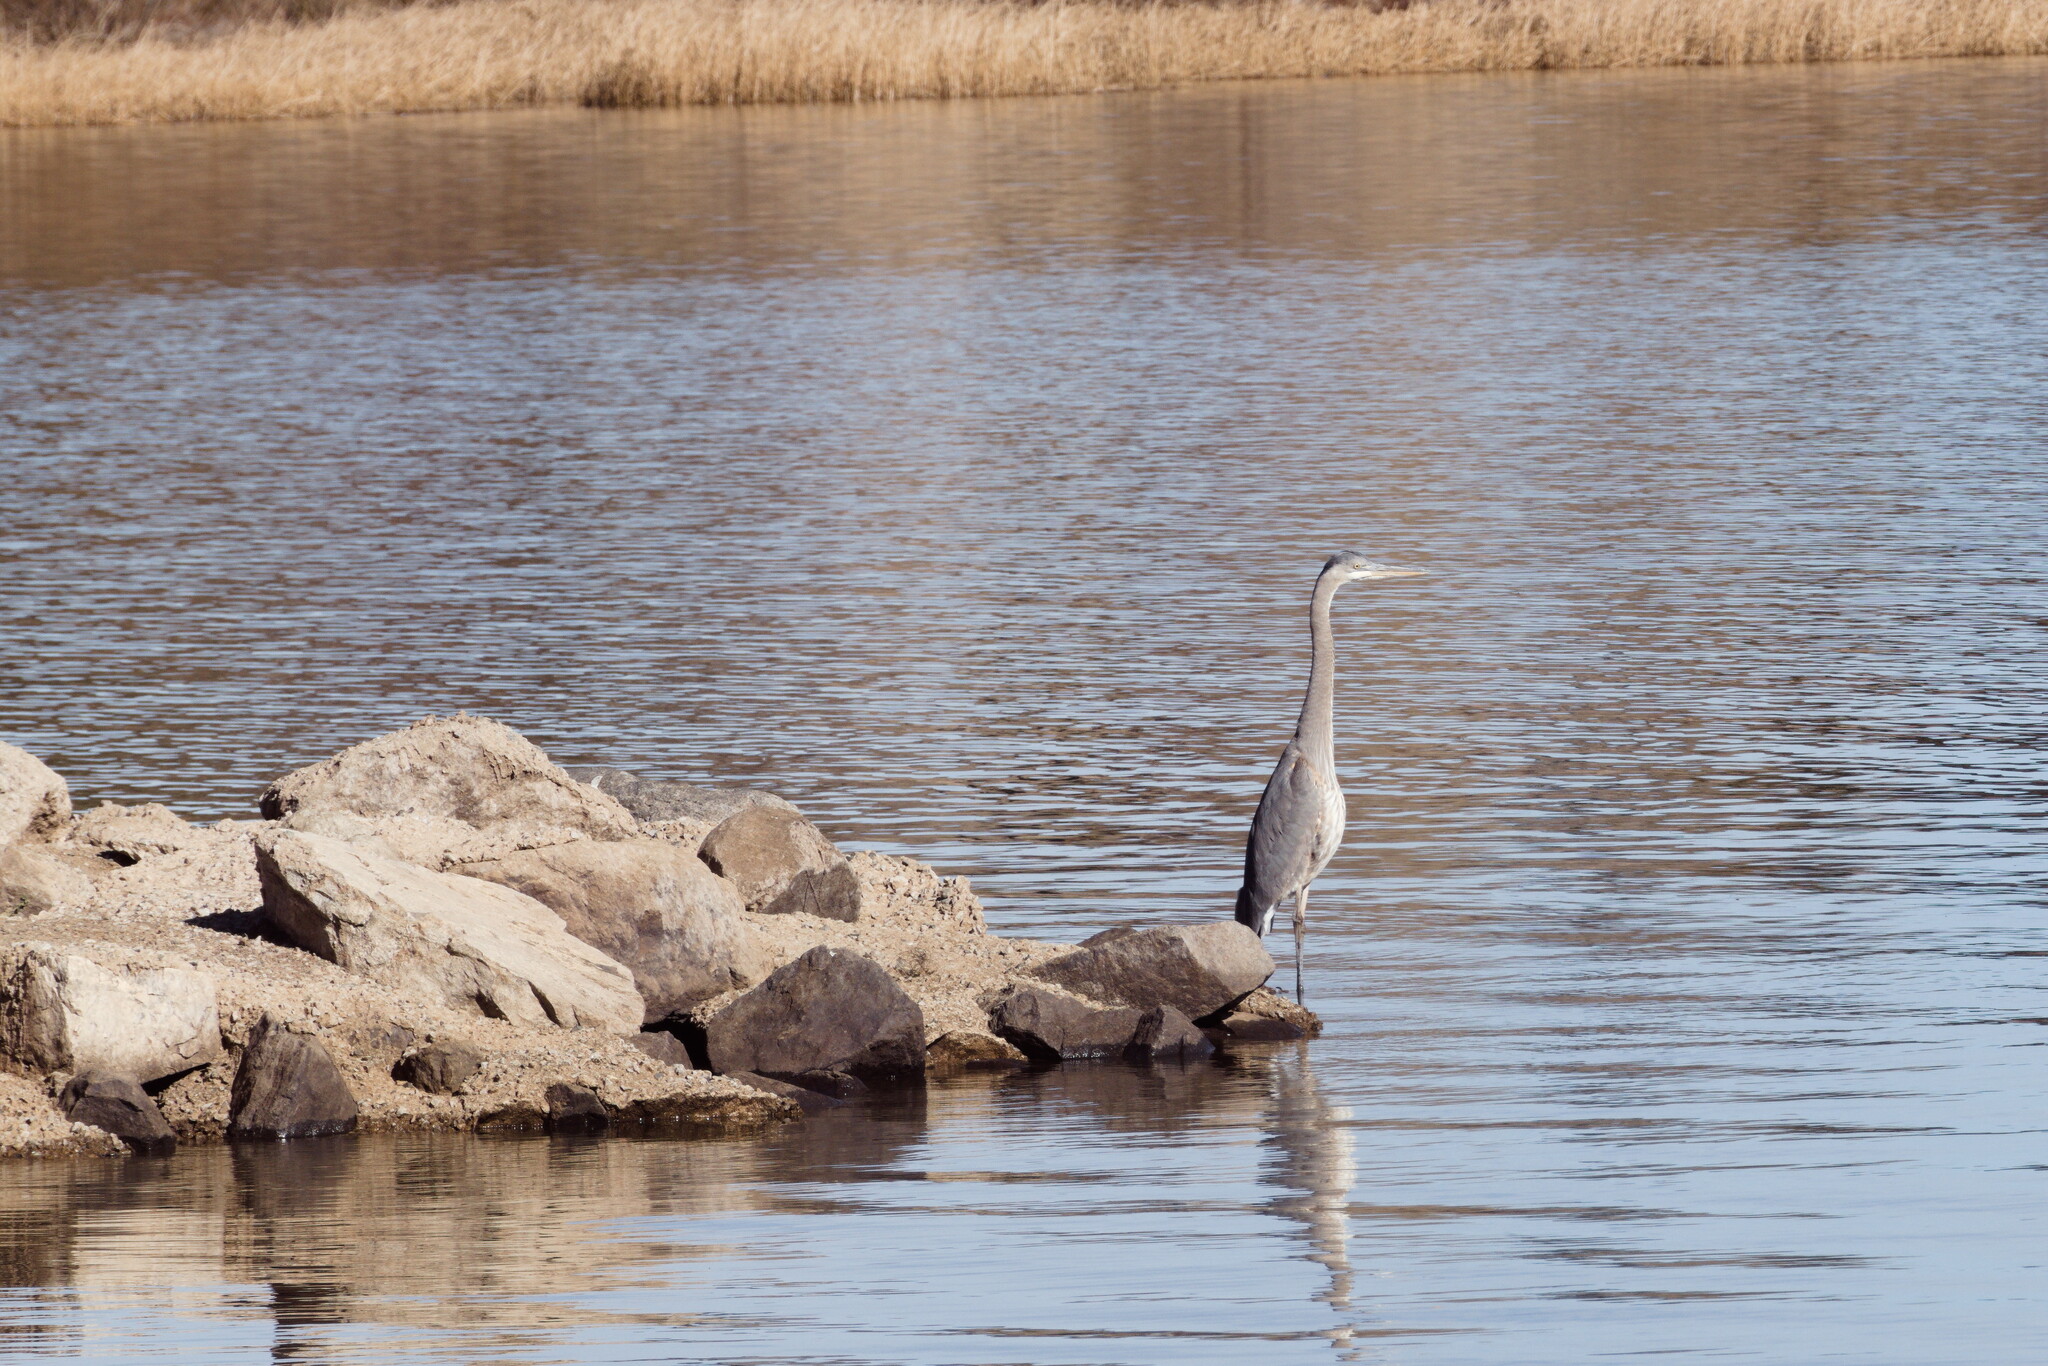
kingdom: Animalia
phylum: Chordata
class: Aves
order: Pelecaniformes
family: Ardeidae
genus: Ardea
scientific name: Ardea herodias
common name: Great blue heron
